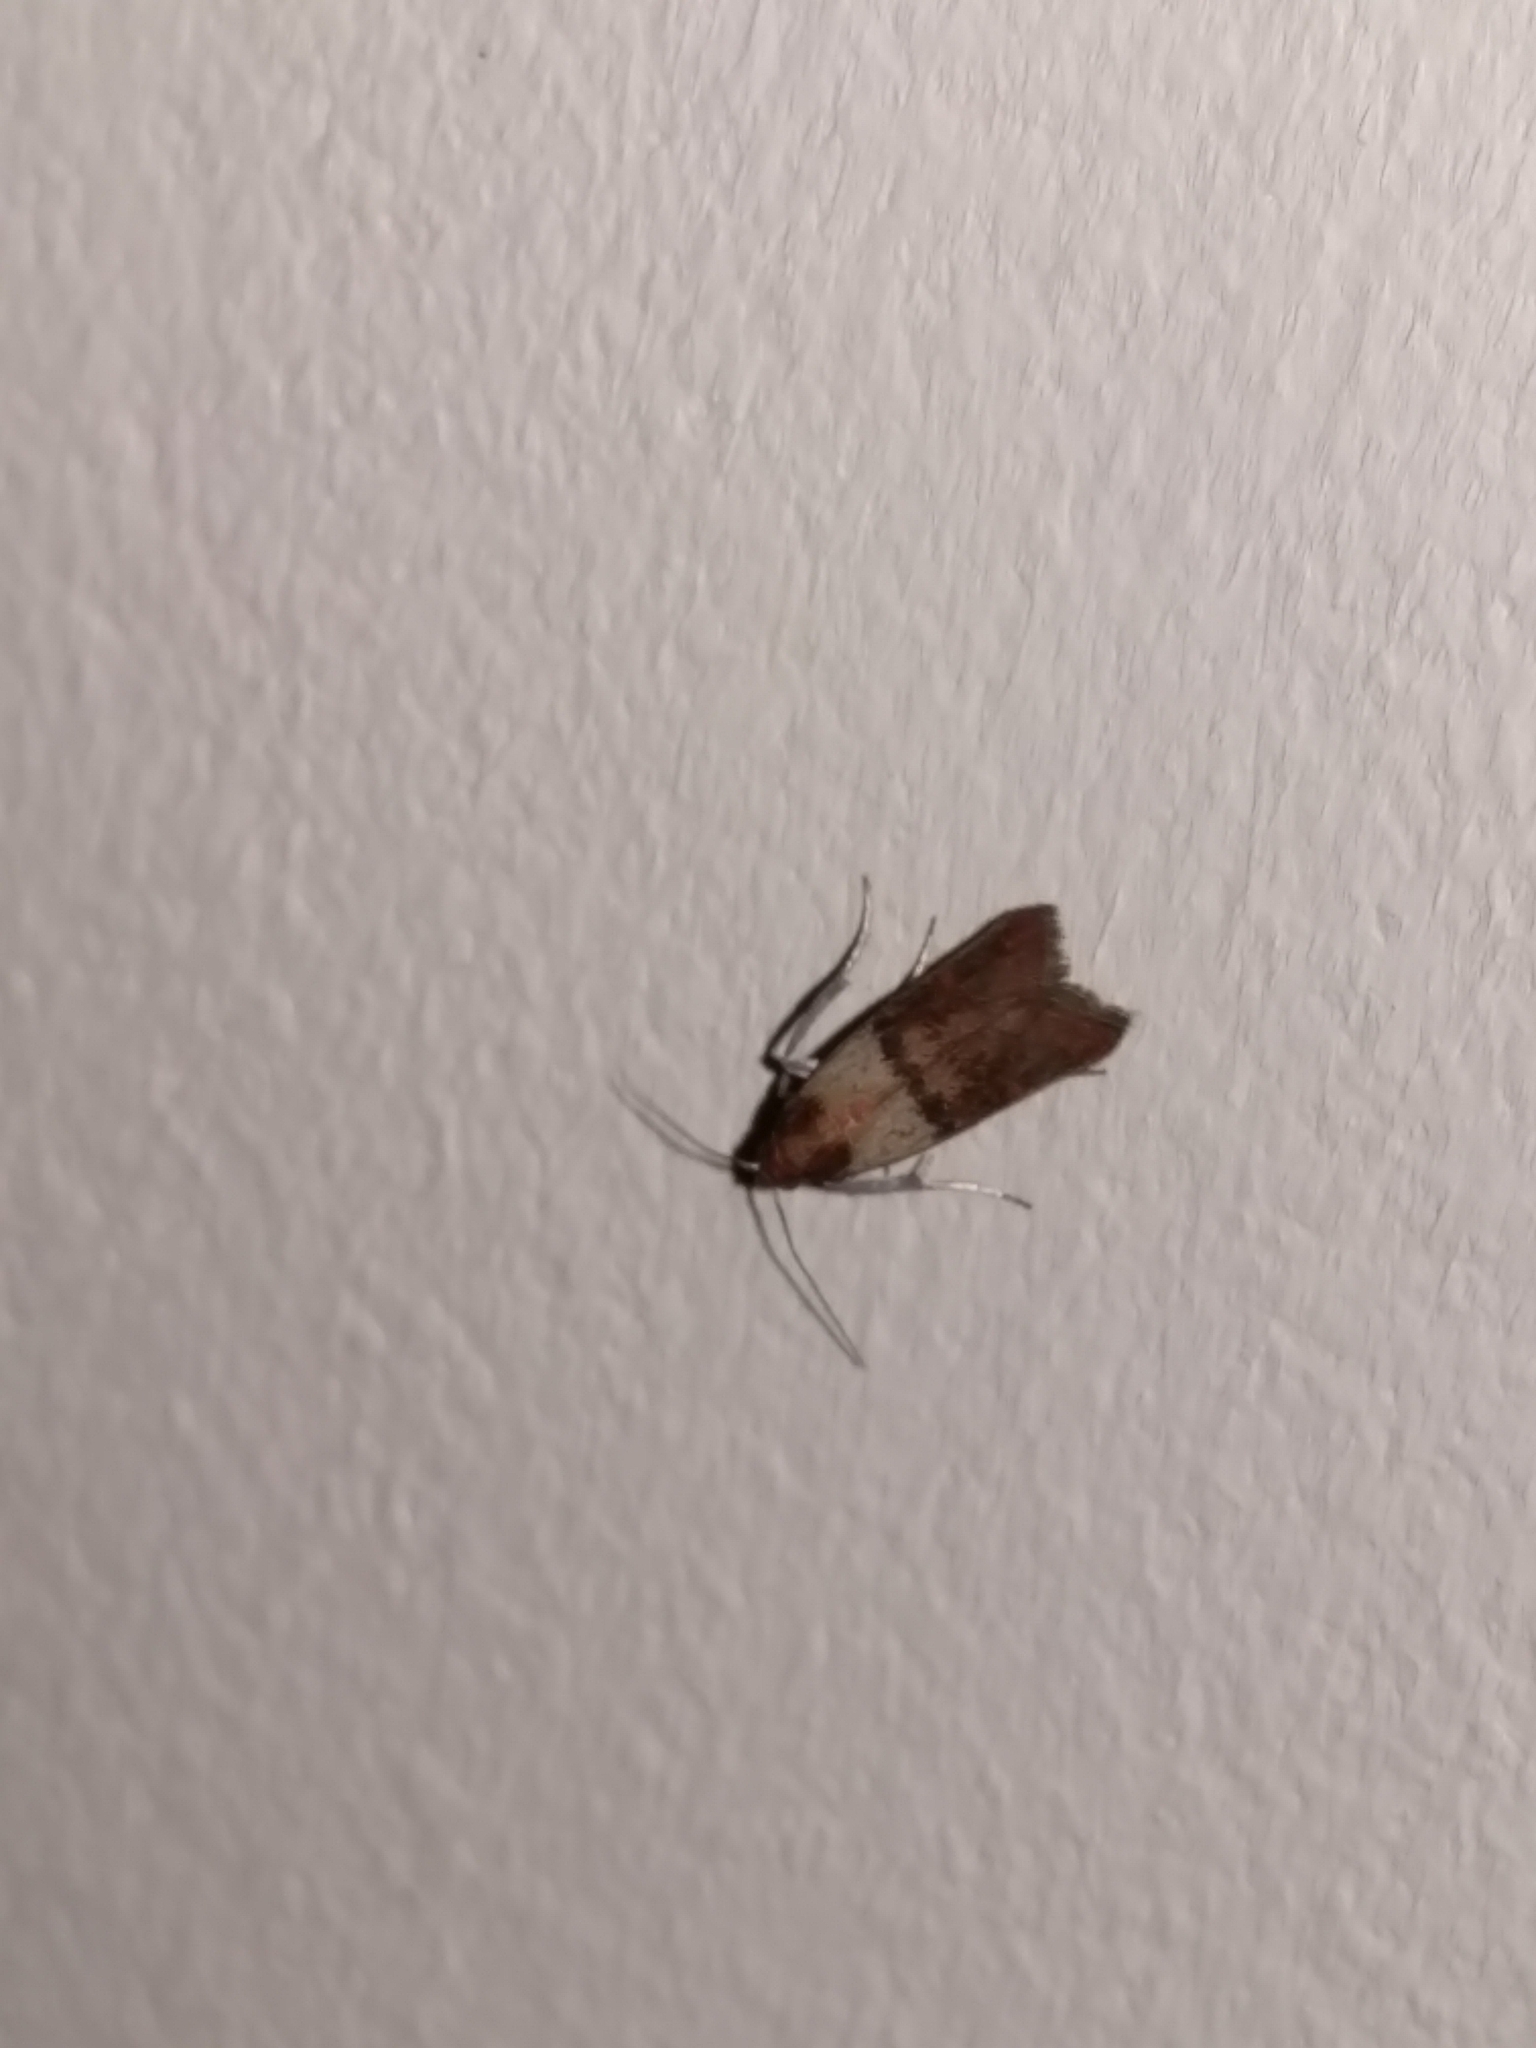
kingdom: Animalia
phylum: Arthropoda
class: Insecta
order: Lepidoptera
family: Pyralidae
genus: Plodia
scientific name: Plodia interpunctella
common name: Indian meal moth
